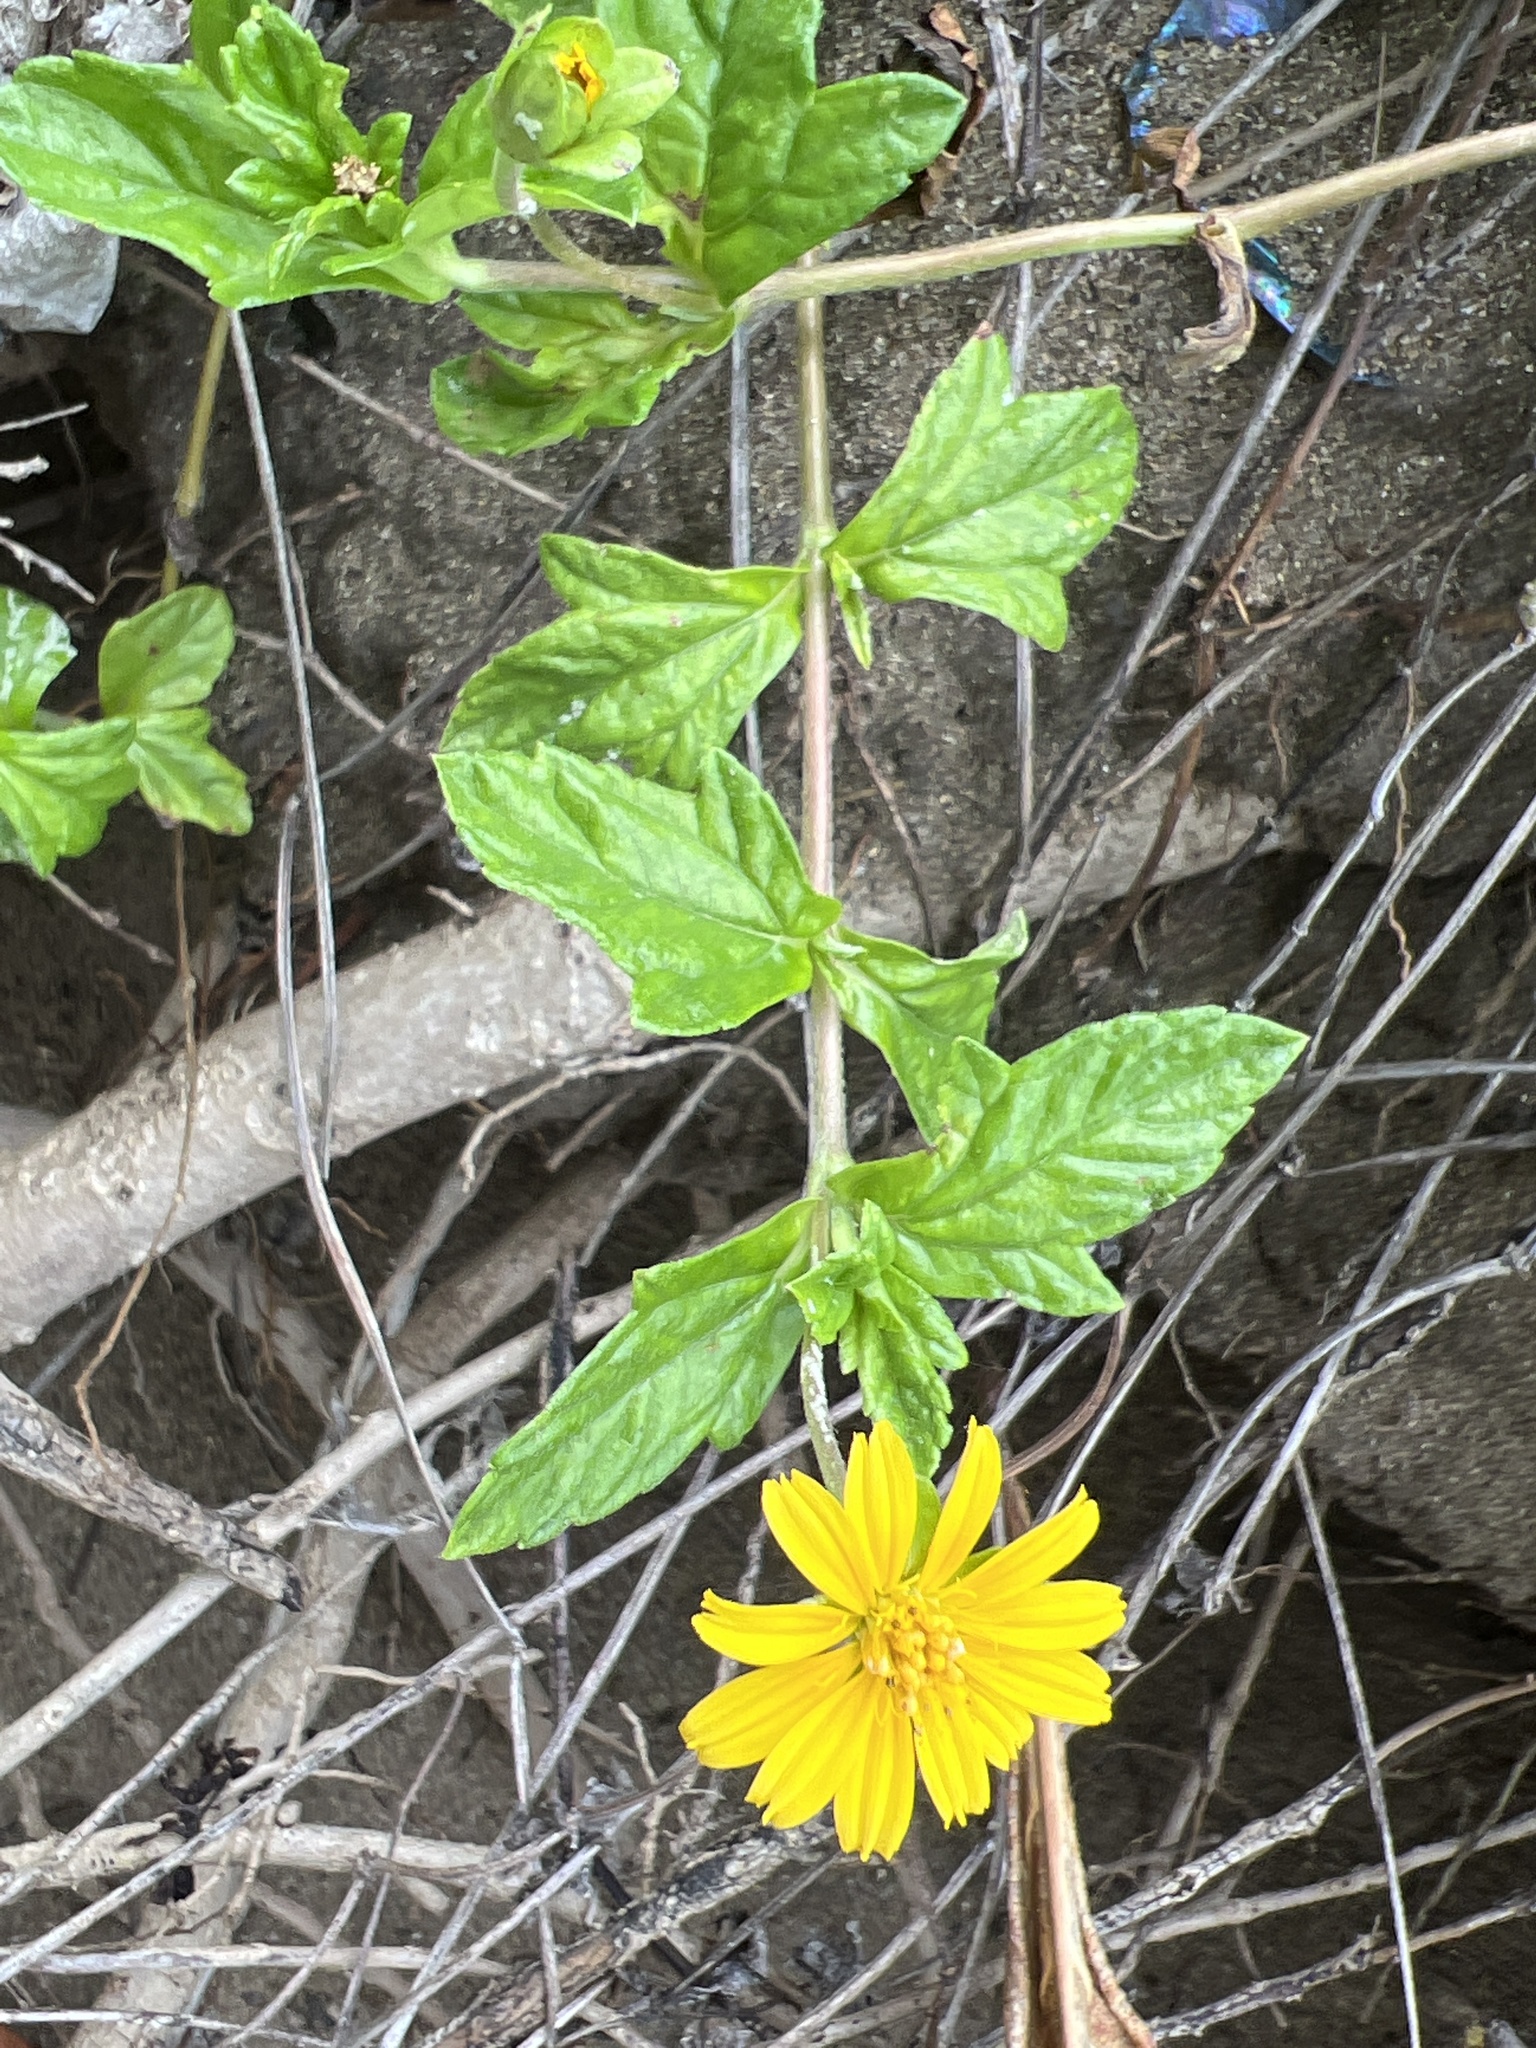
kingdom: Plantae
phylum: Tracheophyta
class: Magnoliopsida
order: Asterales
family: Asteraceae
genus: Sphagneticola
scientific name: Sphagneticola trilobata
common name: Bay biscayne creeping-oxeye
